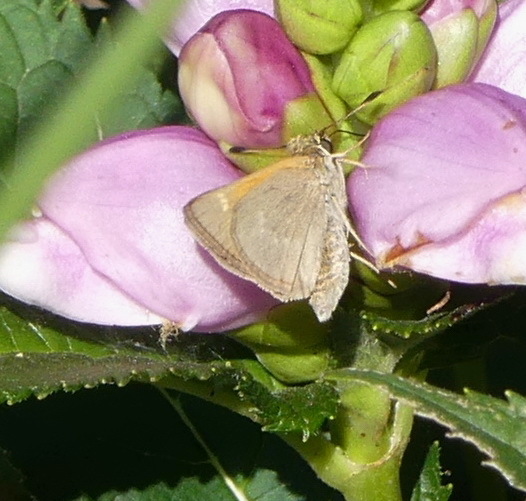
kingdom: Animalia
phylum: Arthropoda
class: Insecta
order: Lepidoptera
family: Hesperiidae
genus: Polites
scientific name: Polites themistocles
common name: Tawny-edged skipper
